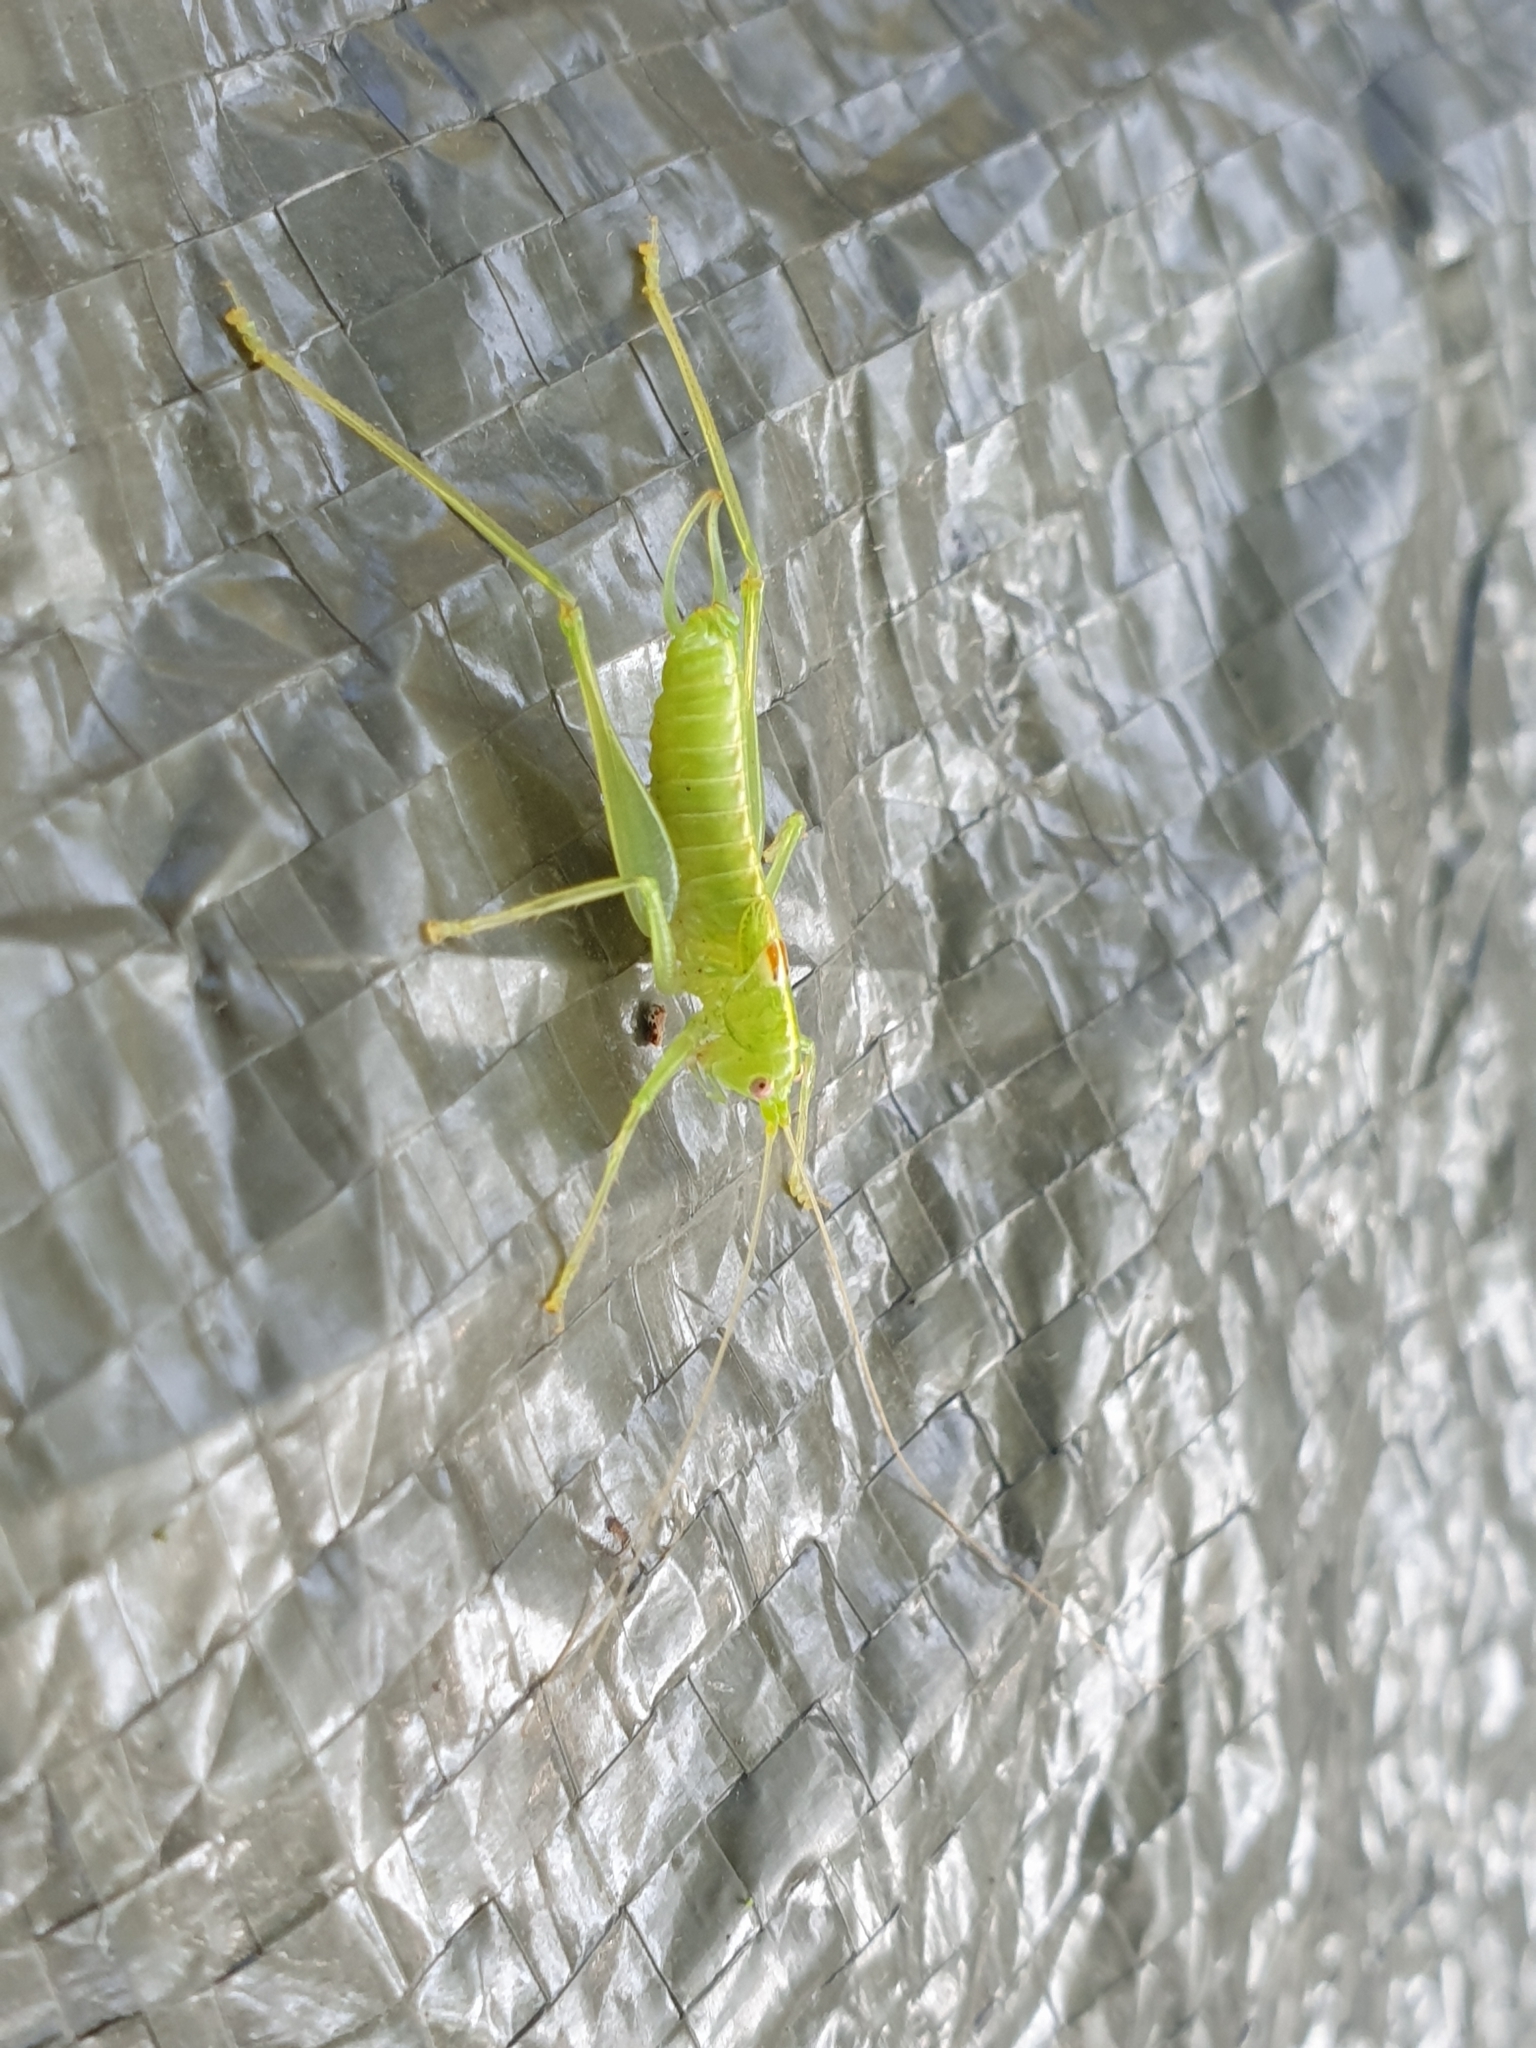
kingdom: Animalia
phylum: Arthropoda
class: Insecta
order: Orthoptera
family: Tettigoniidae
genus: Meconema
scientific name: Meconema meridionale
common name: Southern oak bush-cricket
